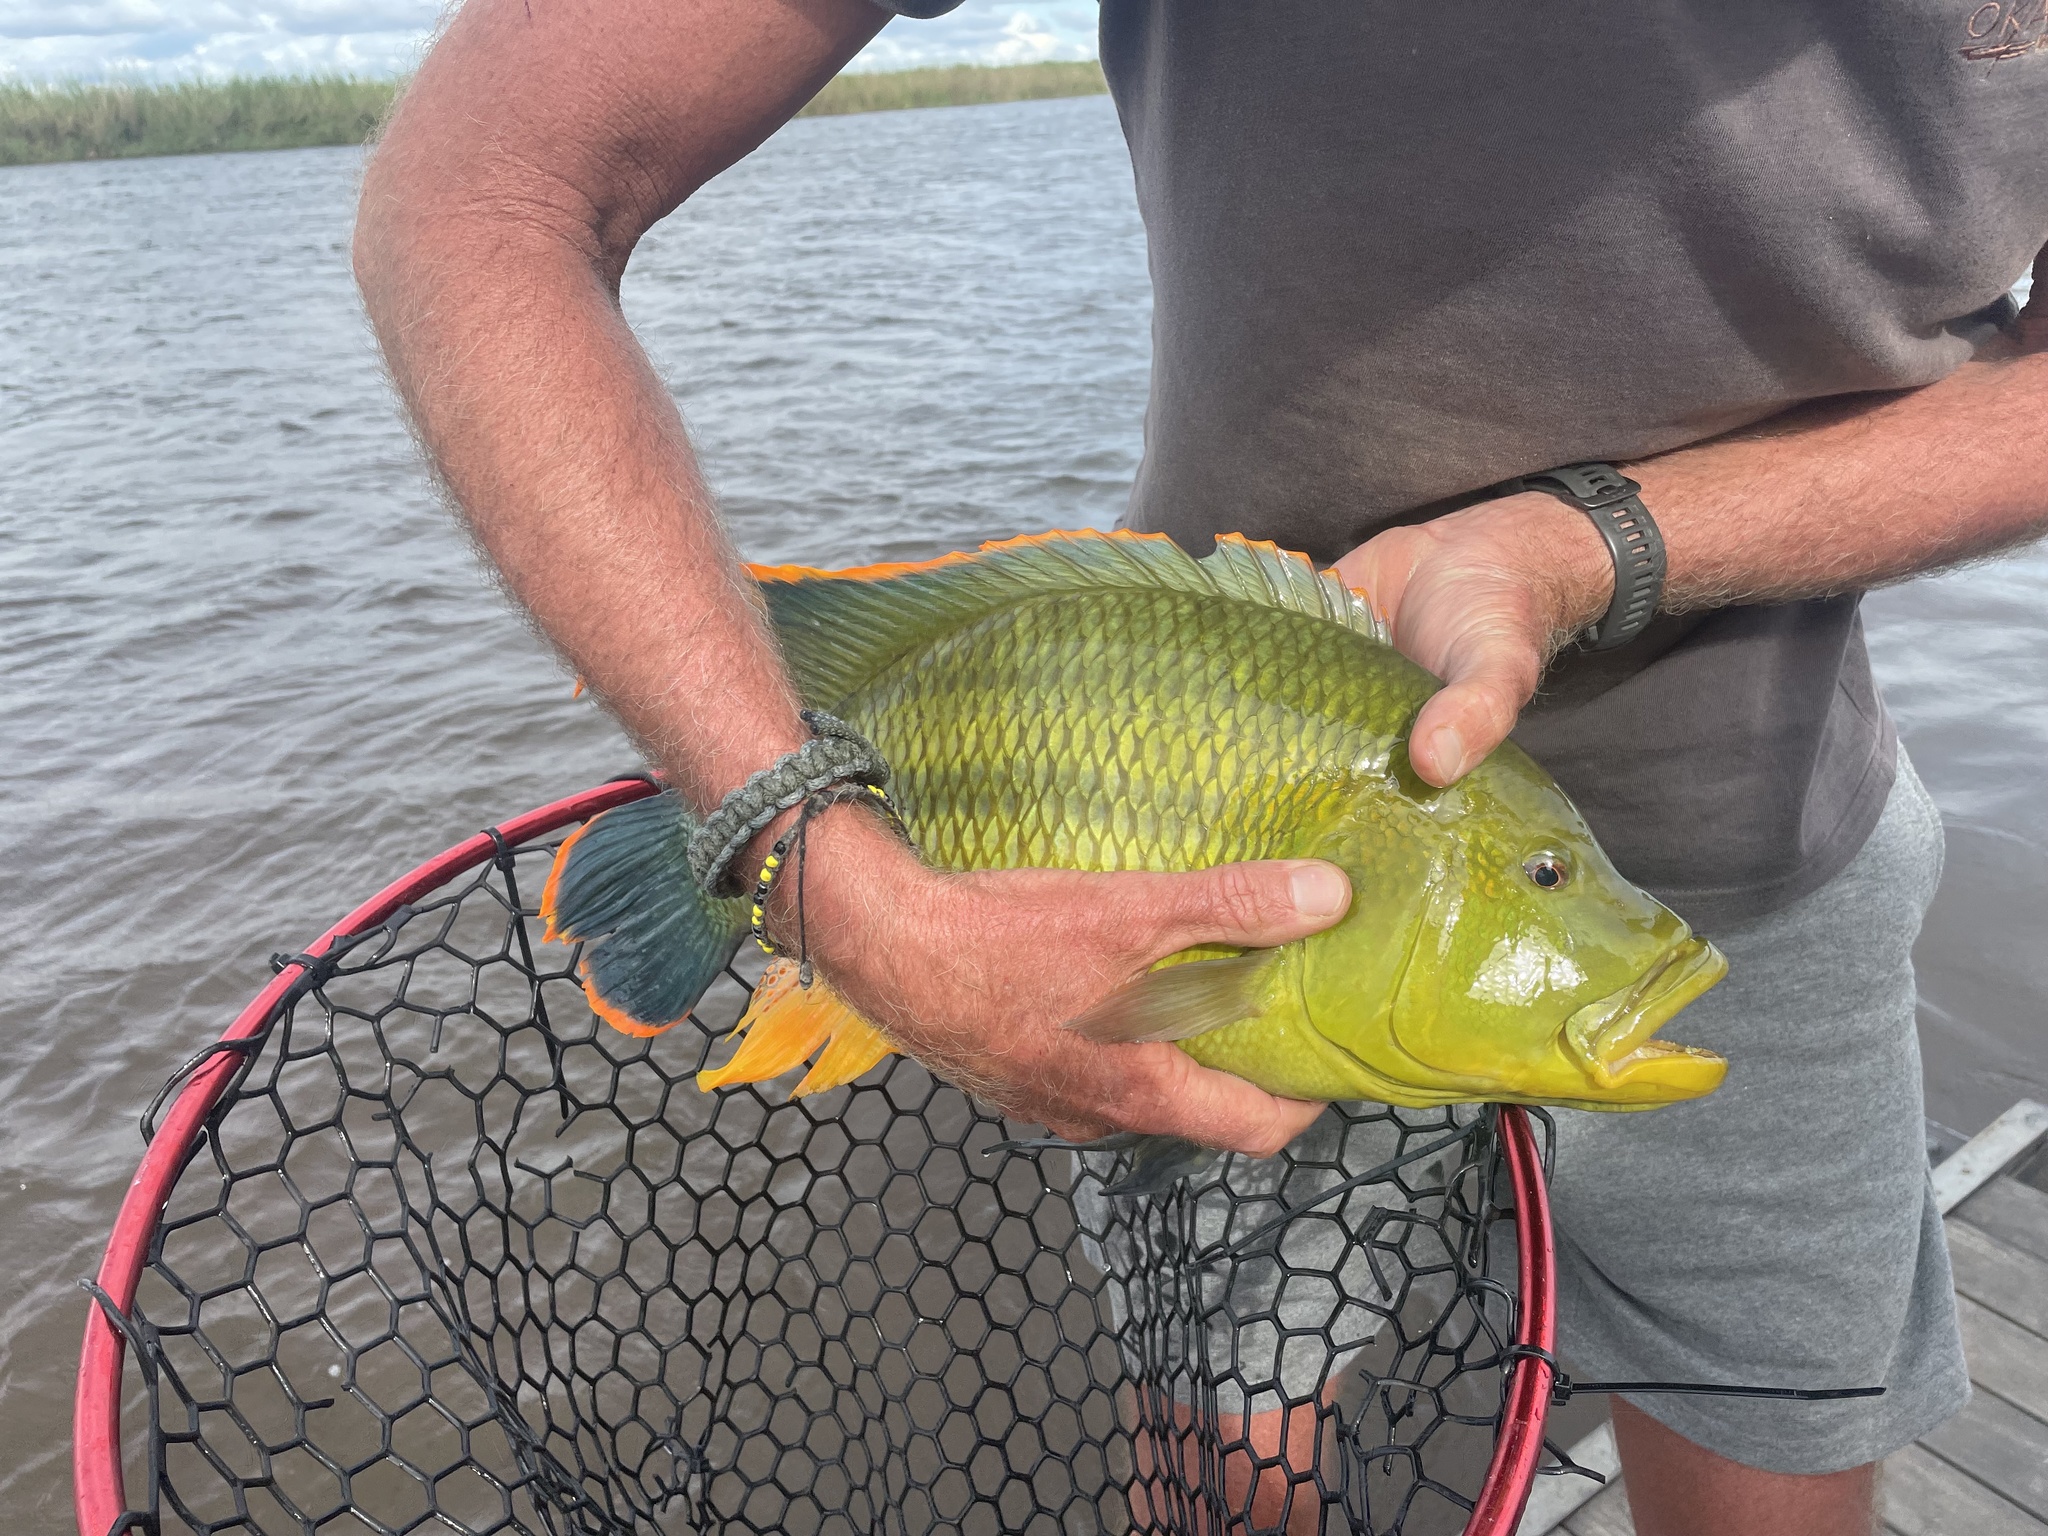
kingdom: Animalia
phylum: Chordata
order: Perciformes
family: Cichlidae
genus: Serranochromis
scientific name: Serranochromis jallae
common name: Upper zambezi nembwe
